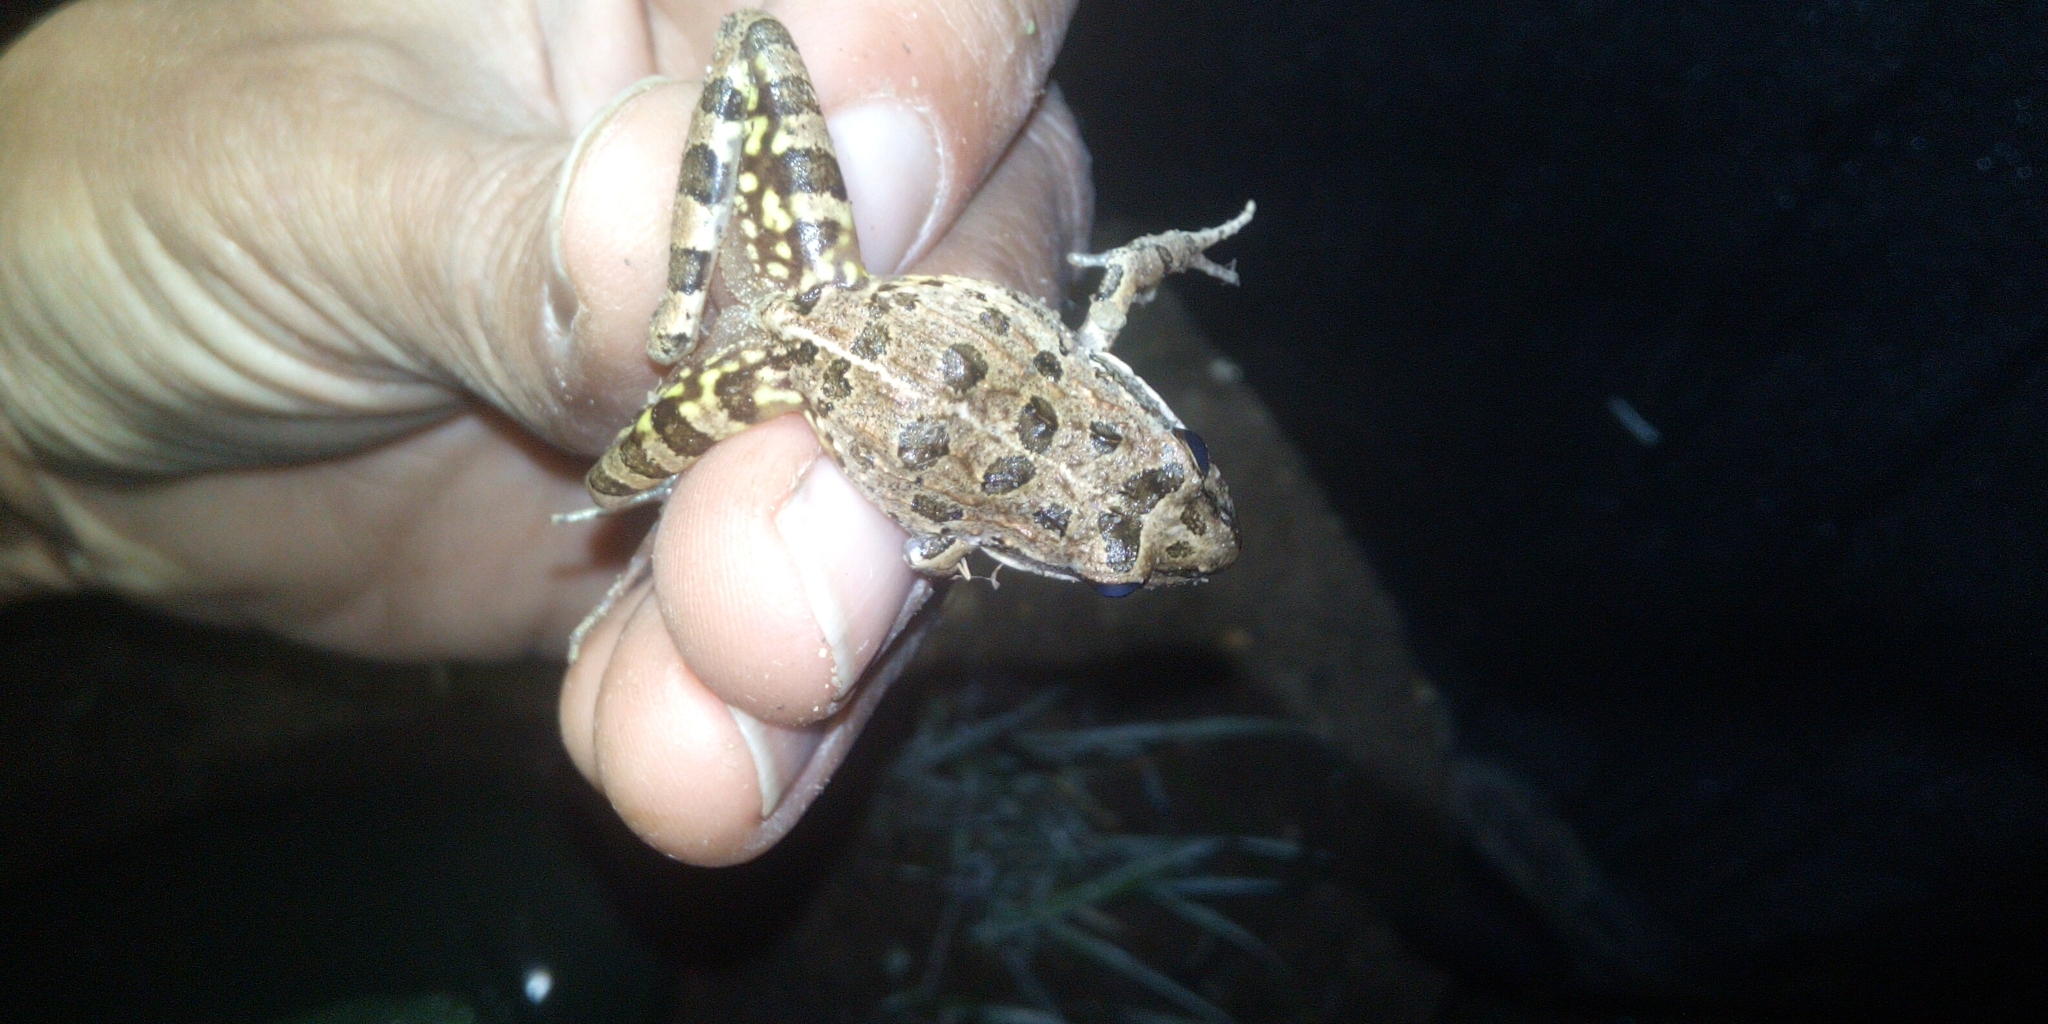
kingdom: Animalia
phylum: Chordata
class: Amphibia
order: Anura
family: Pyxicephalidae
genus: Strongylopus
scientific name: Strongylopus grayii
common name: Gray's stream frog
